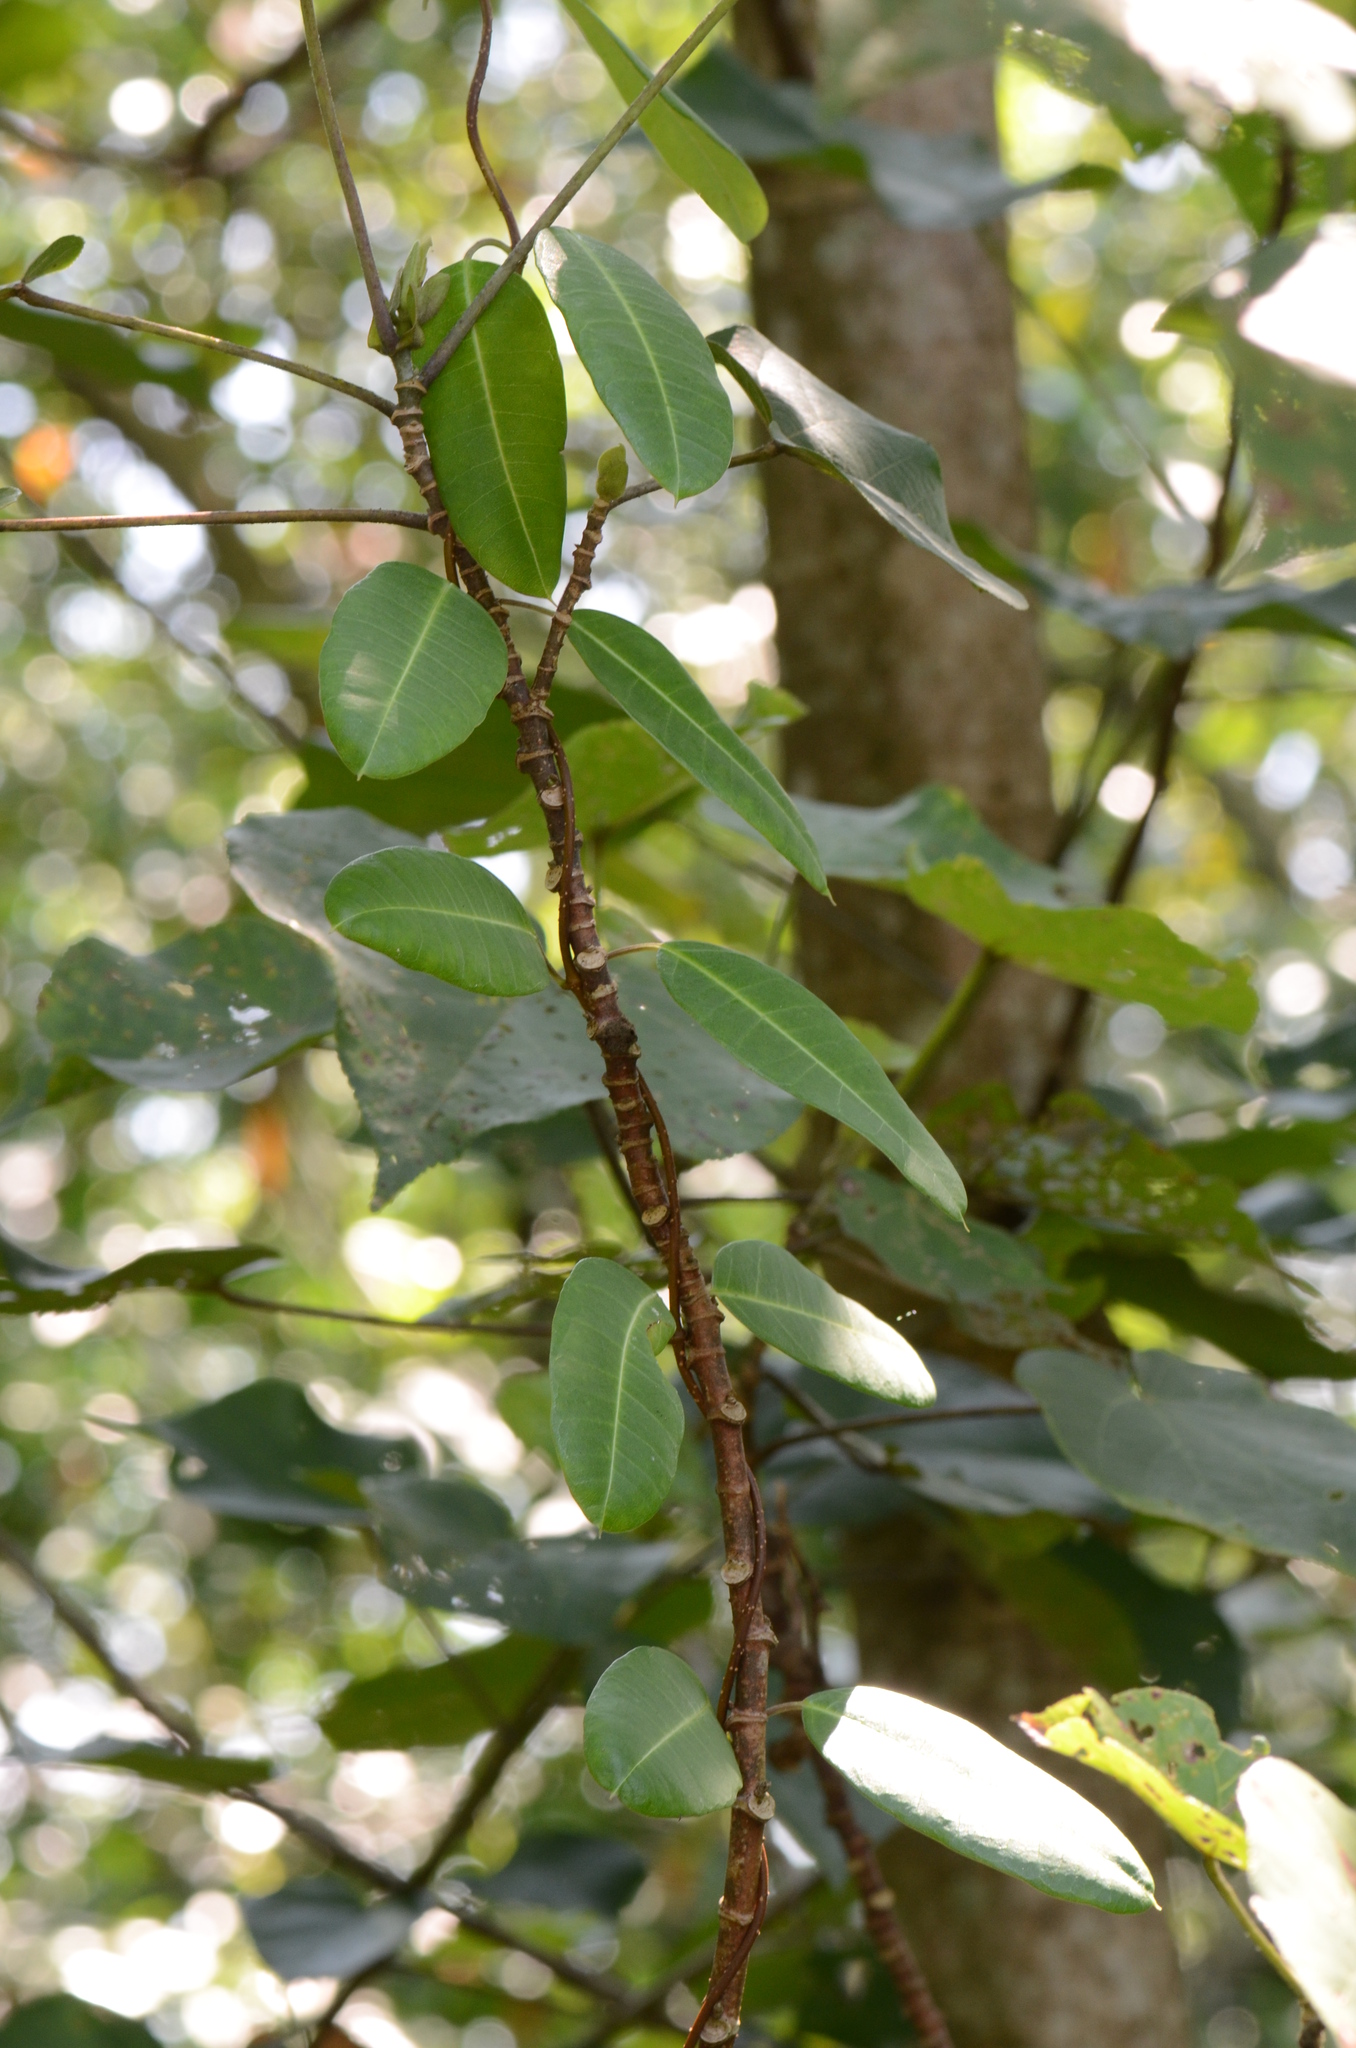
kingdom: Plantae
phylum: Tracheophyta
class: Magnoliopsida
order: Gentianales
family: Apocynaceae
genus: Gymnanthera
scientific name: Gymnanthera oblonga
